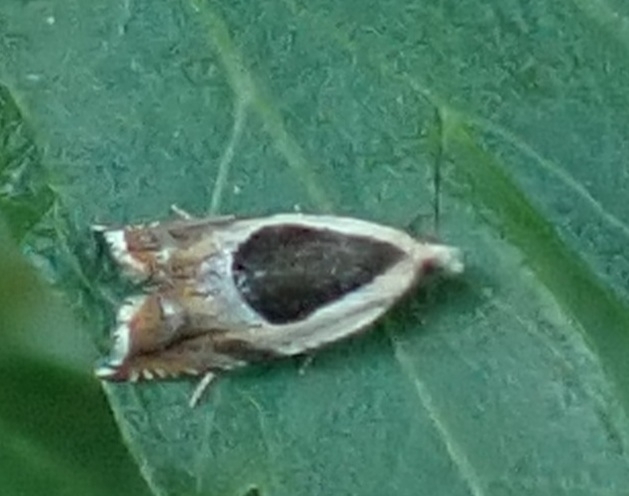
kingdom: Animalia
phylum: Arthropoda
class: Insecta
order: Lepidoptera
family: Tortricidae
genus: Ancylis
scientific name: Ancylis badiana
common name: Common roller
